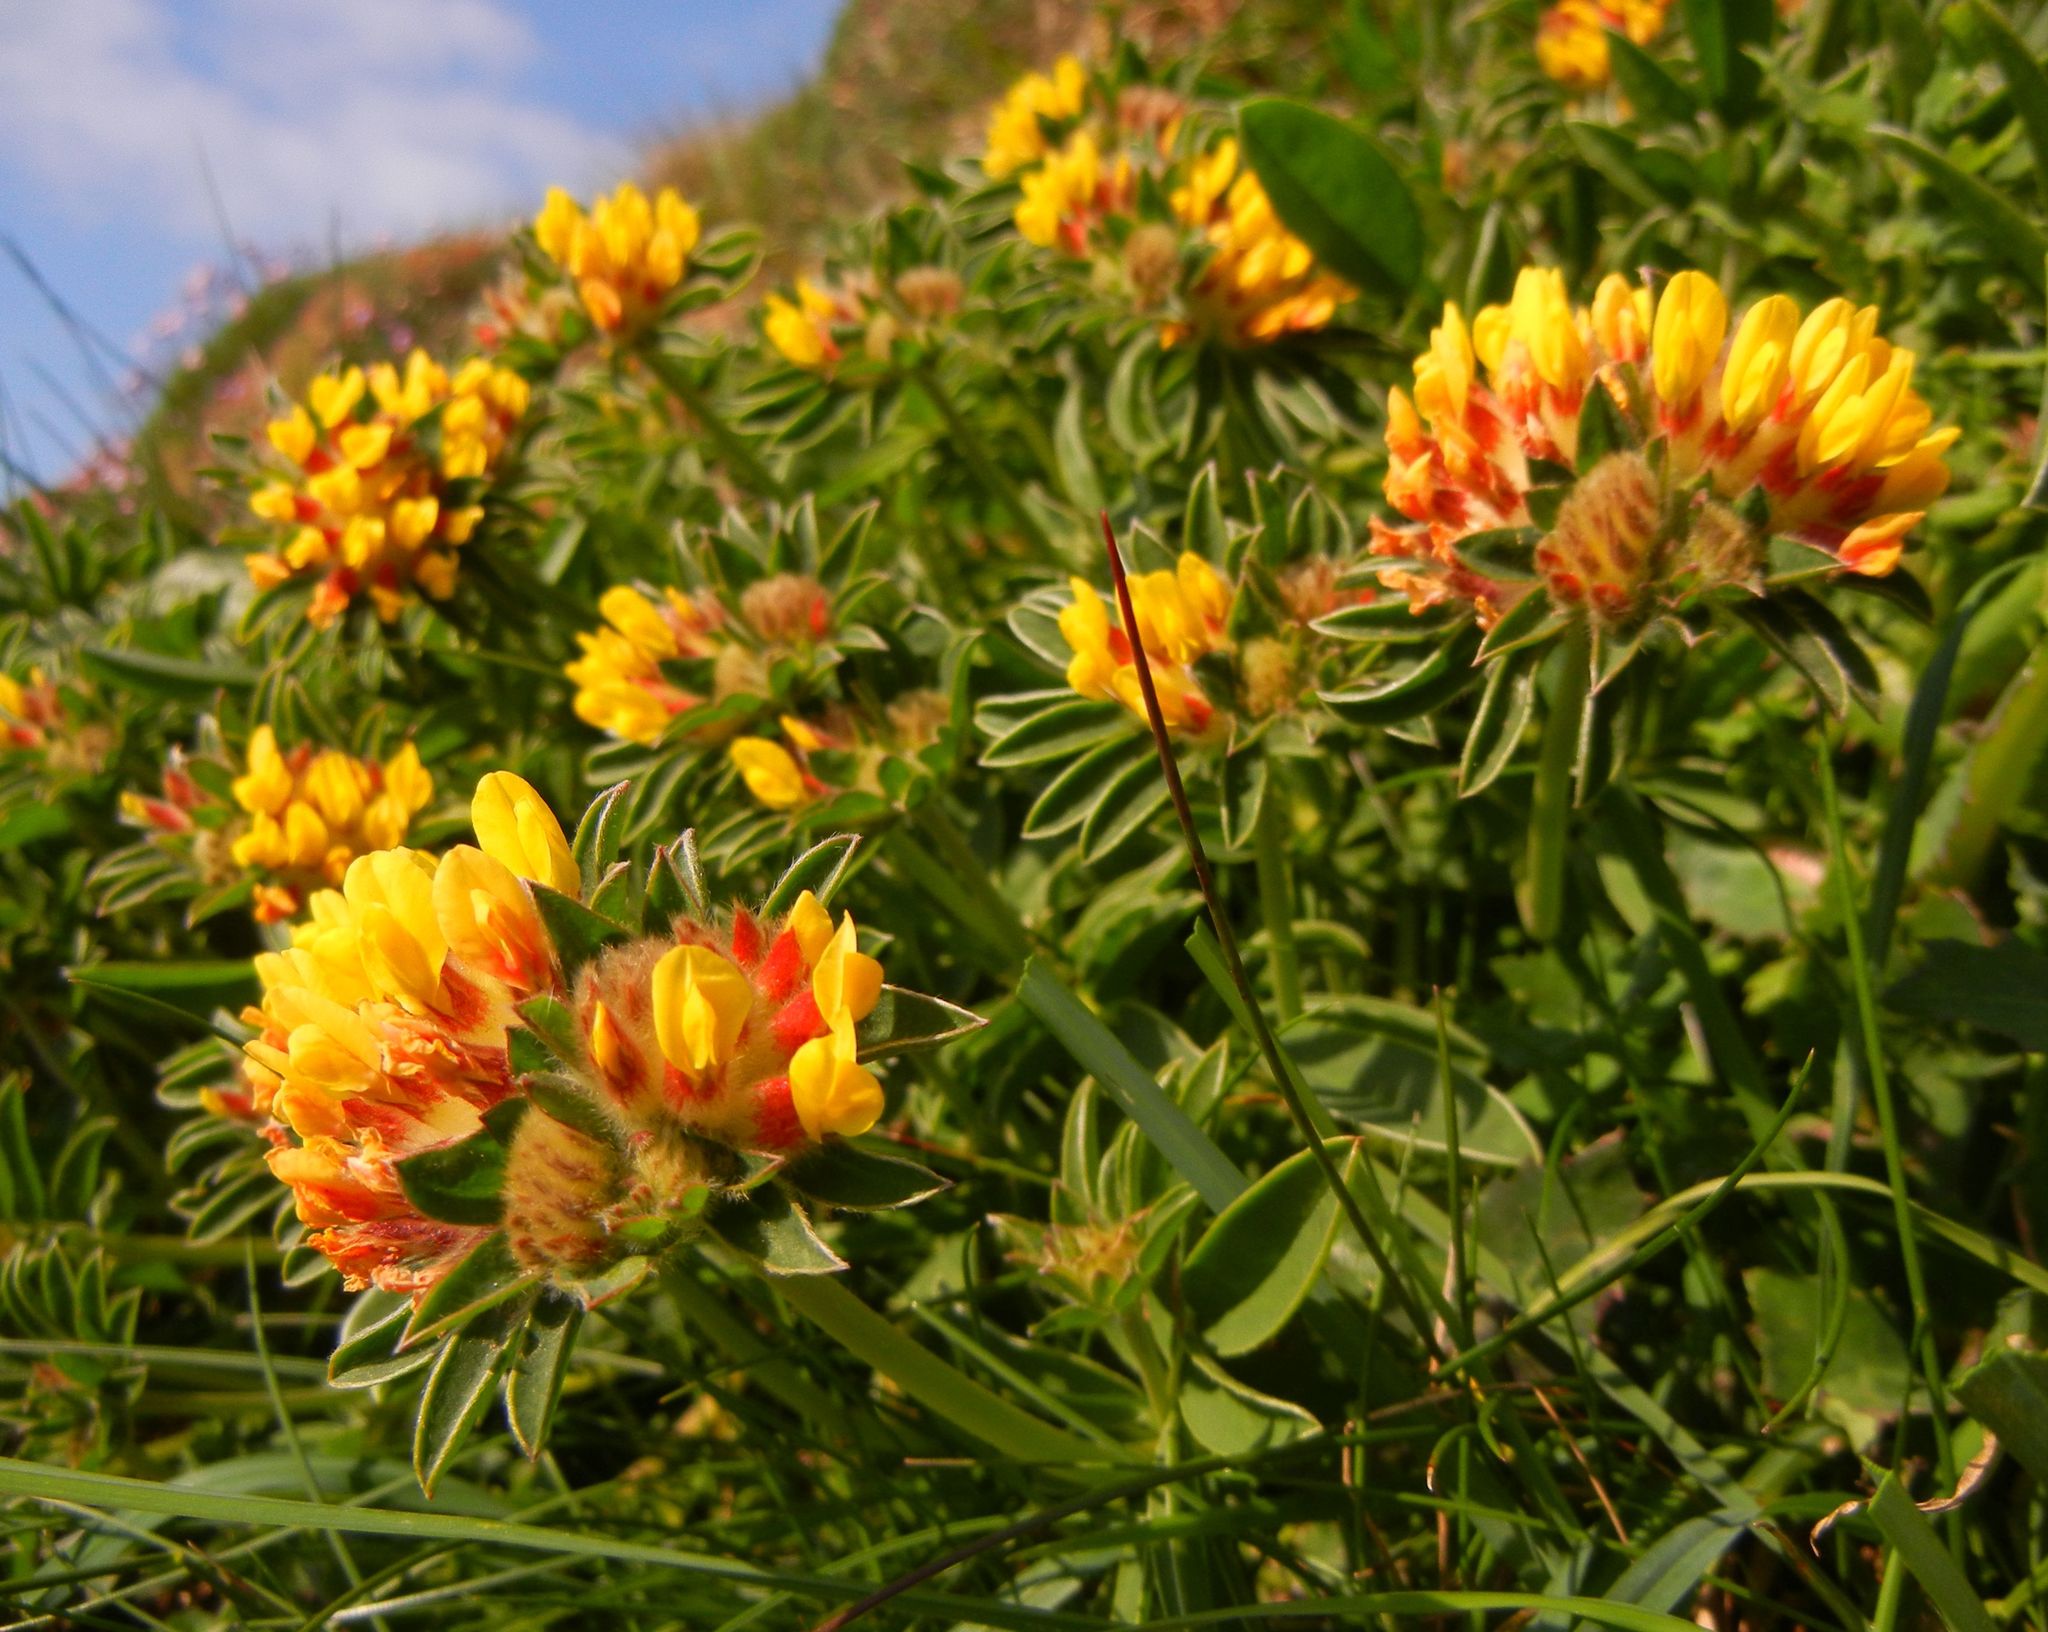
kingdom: Plantae
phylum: Tracheophyta
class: Magnoliopsida
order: Fabales
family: Fabaceae
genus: Anthyllis
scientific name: Anthyllis vulneraria
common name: Kidney vetch
